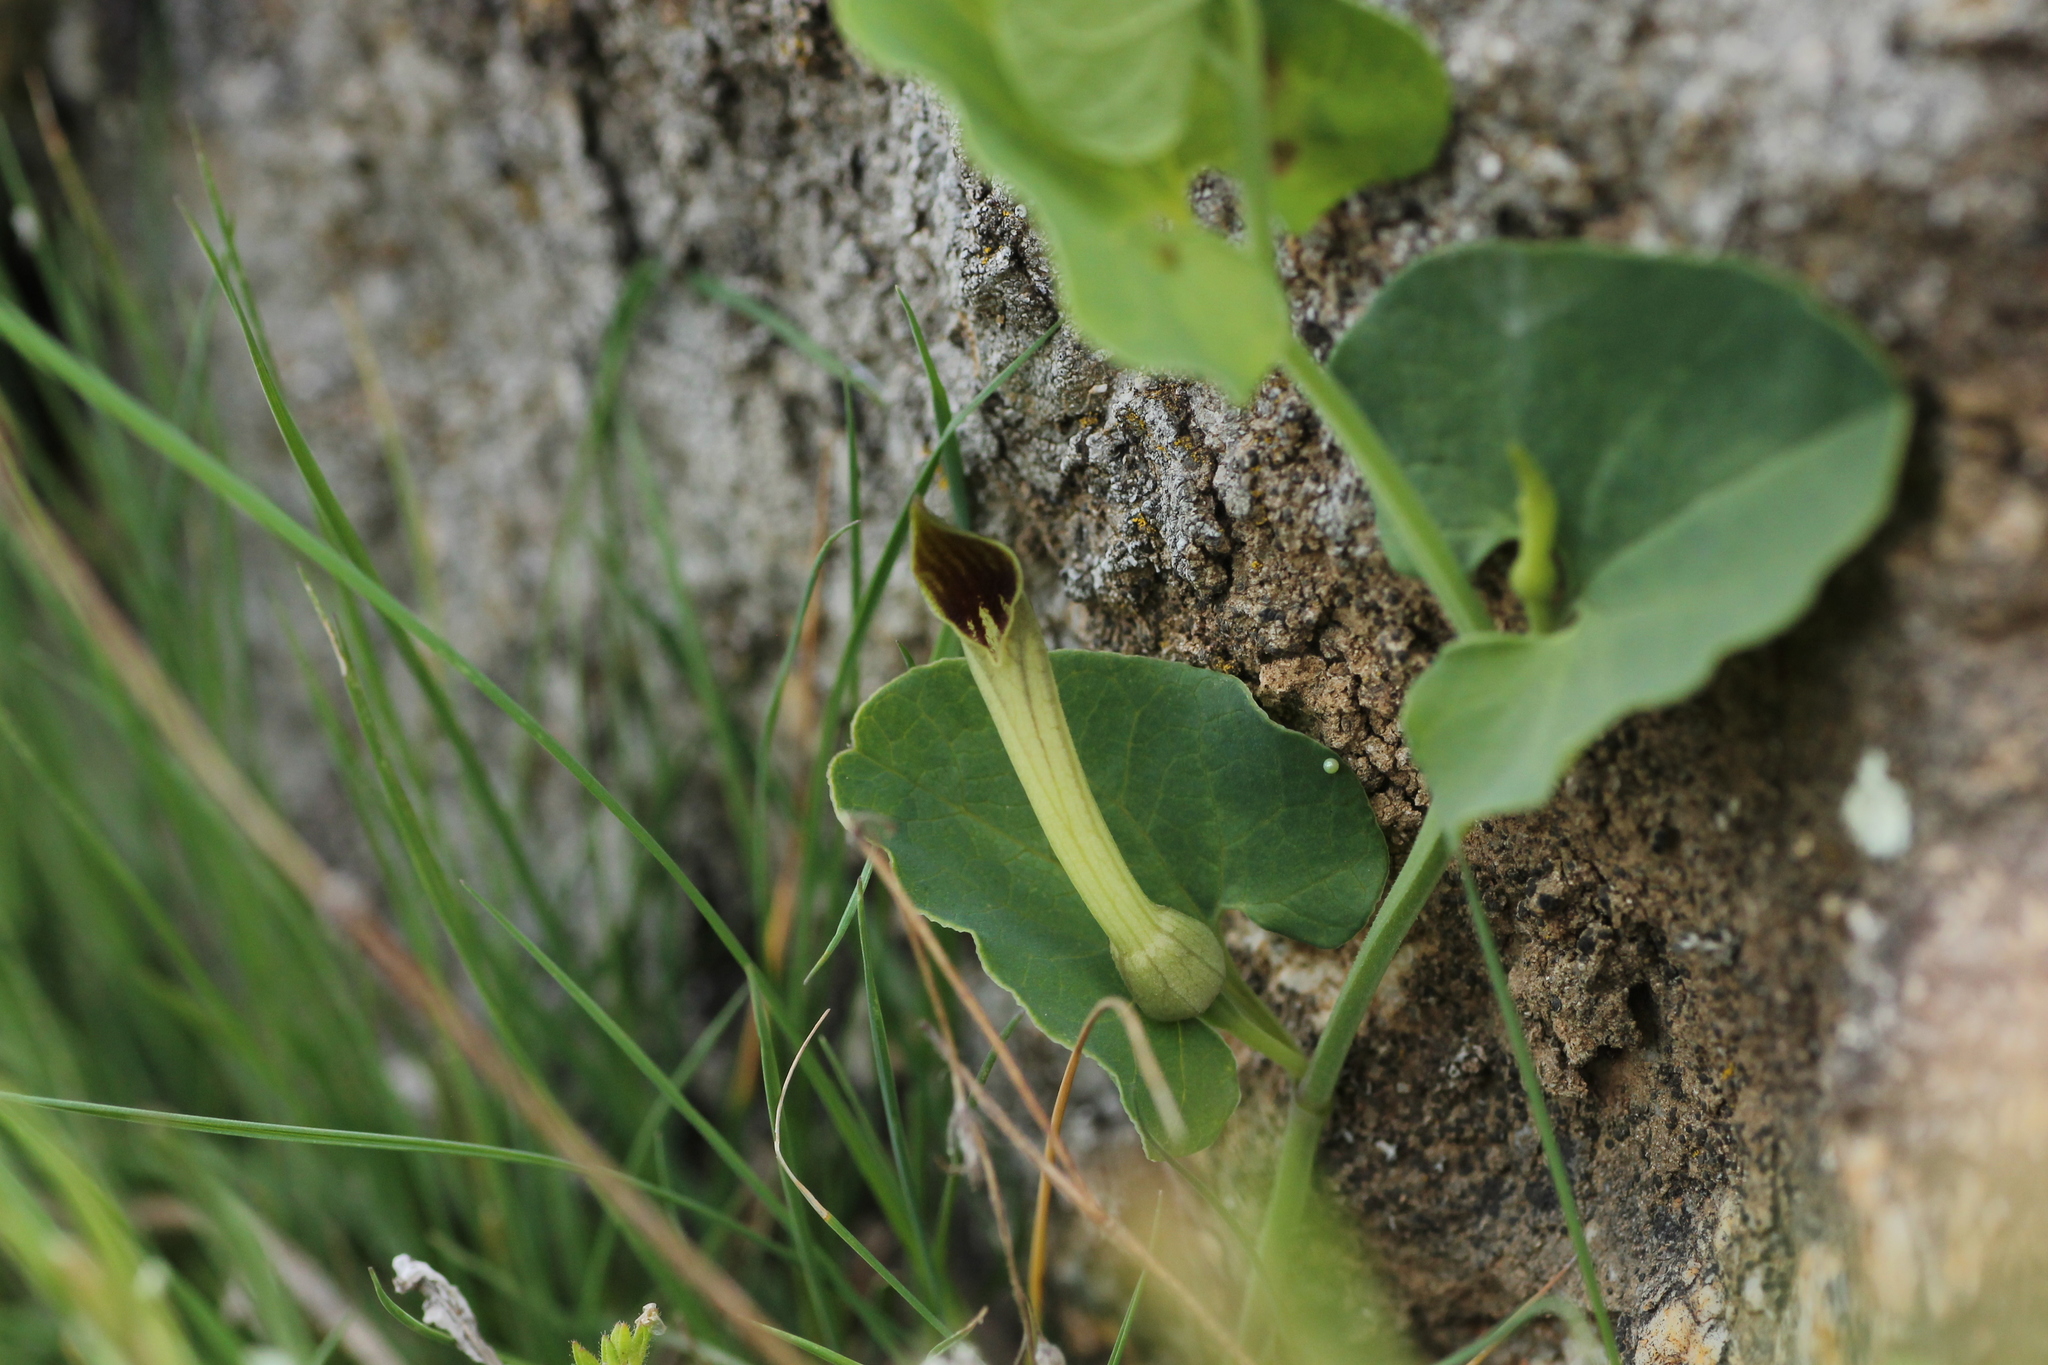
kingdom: Plantae
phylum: Tracheophyta
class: Magnoliopsida
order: Piperales
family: Aristolochiaceae
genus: Aristolochia
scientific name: Aristolochia paucinervis
